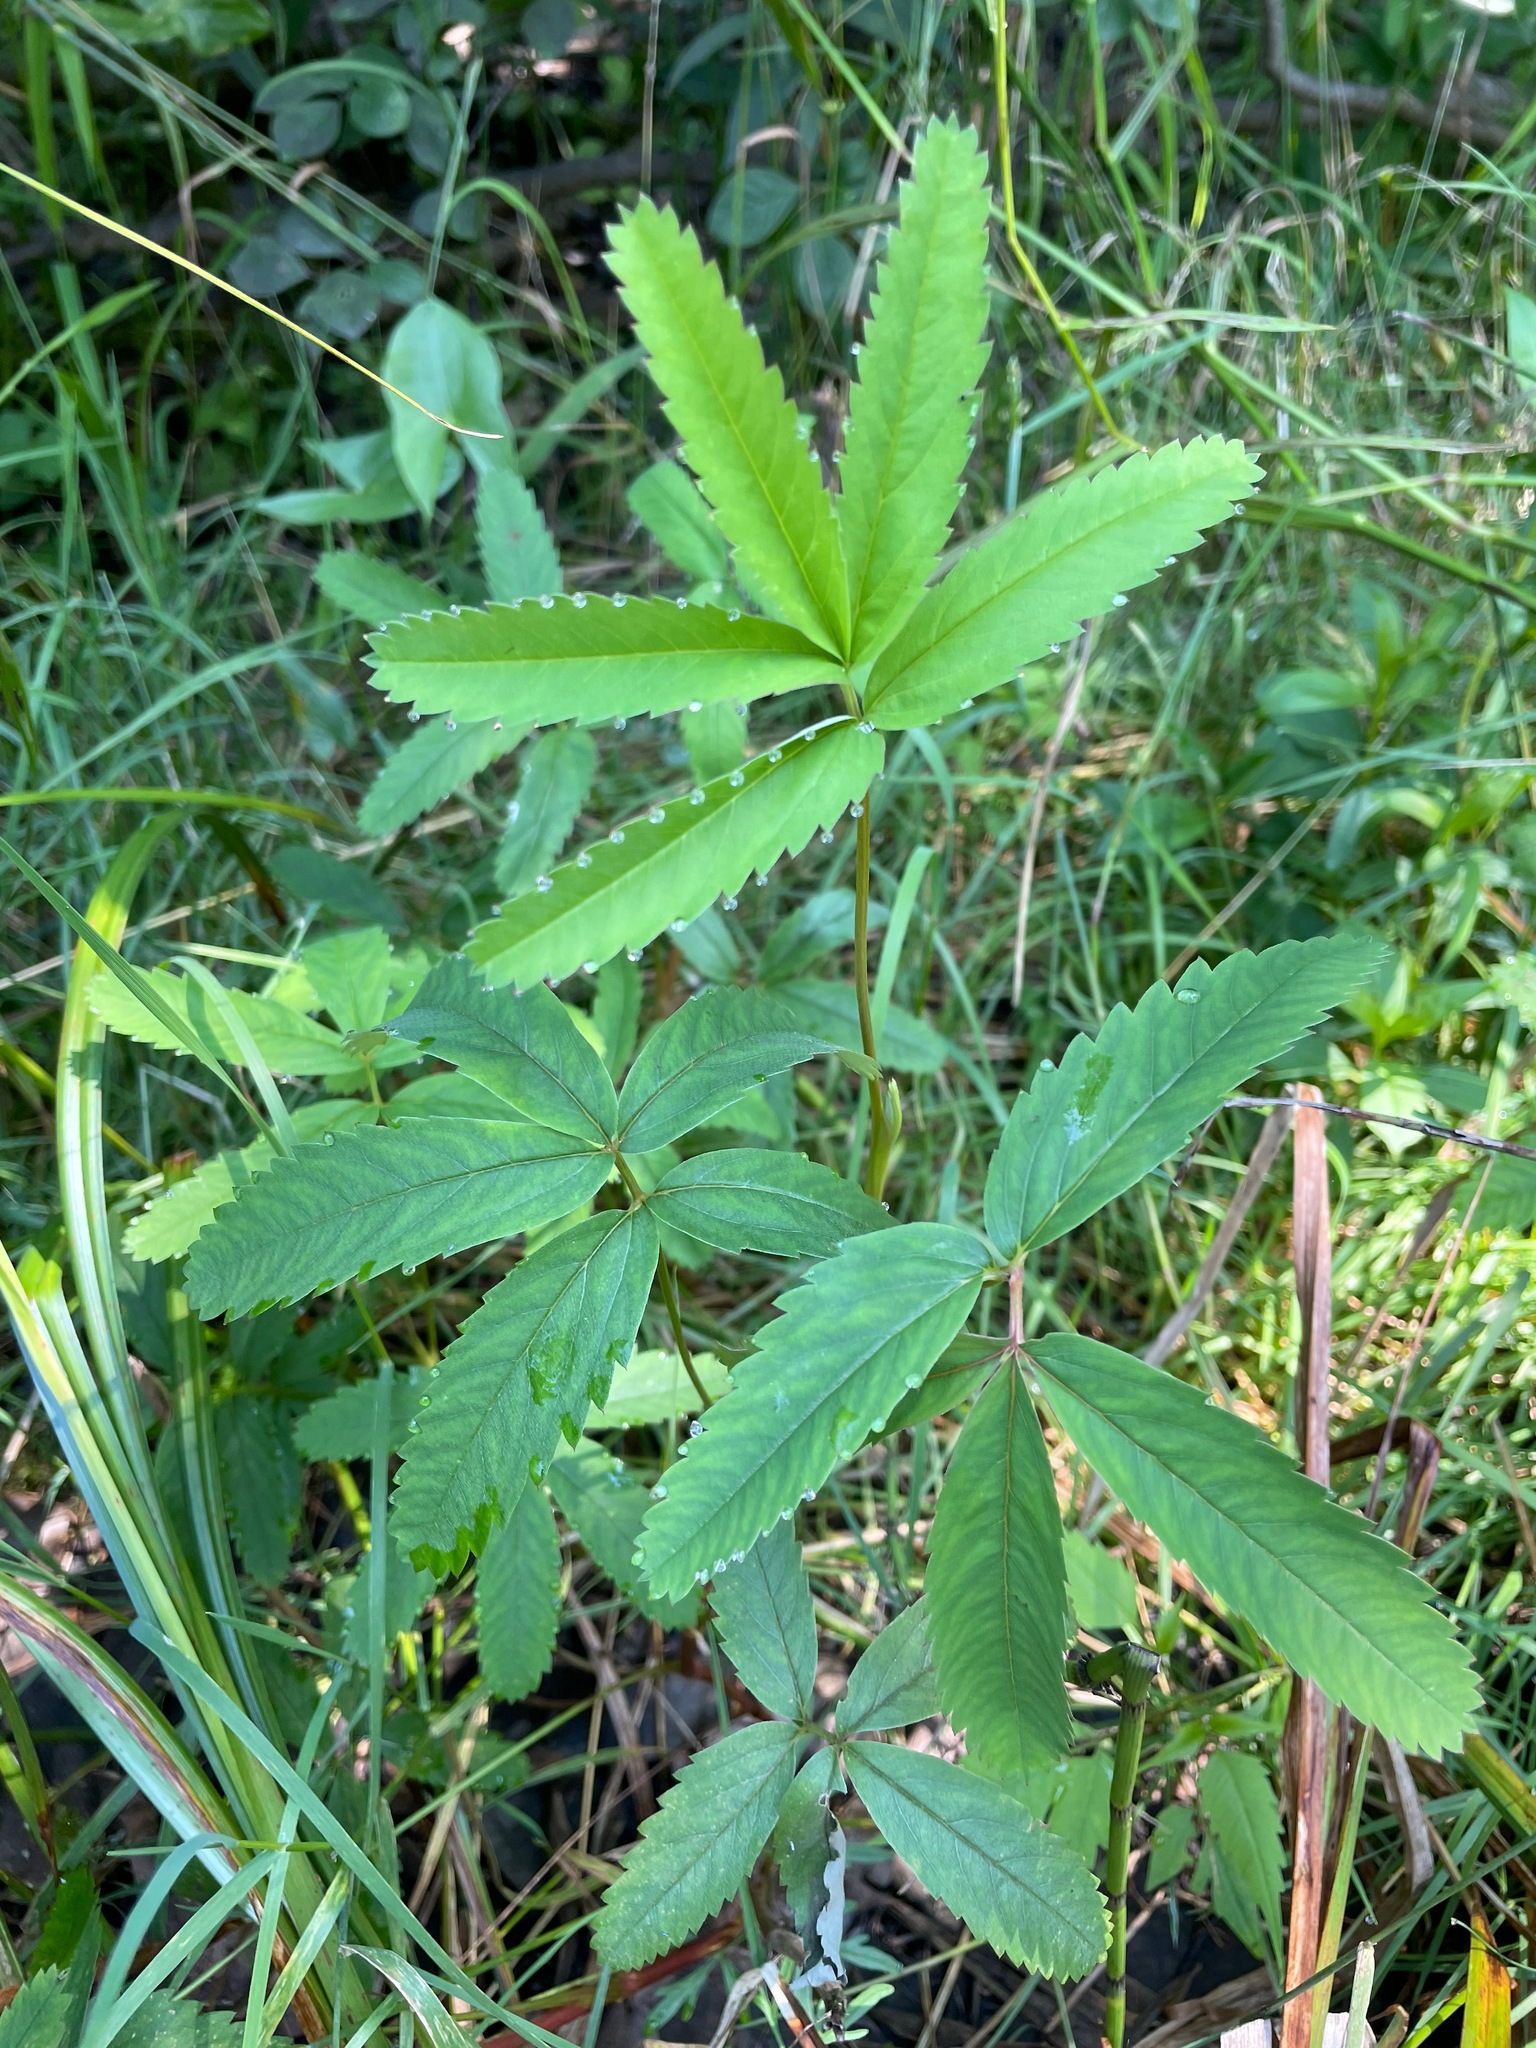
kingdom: Plantae
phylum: Tracheophyta
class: Magnoliopsida
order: Rosales
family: Rosaceae
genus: Comarum
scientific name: Comarum palustre
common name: Marsh cinquefoil
